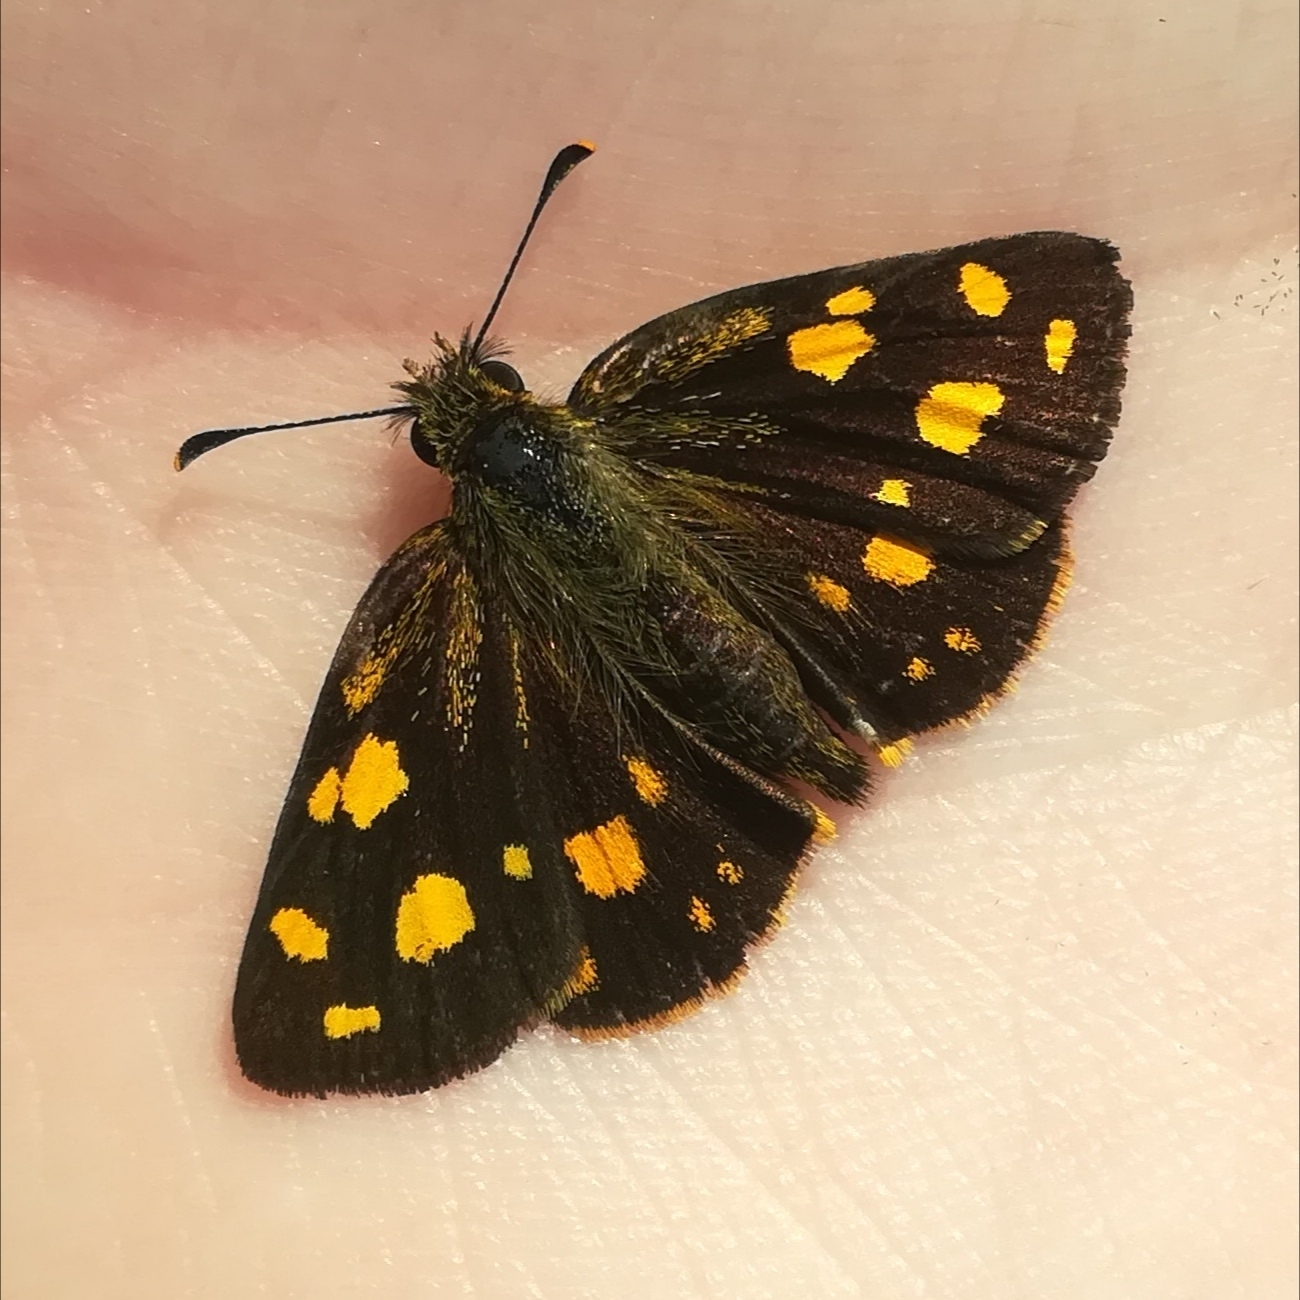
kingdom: Animalia
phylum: Arthropoda
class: Insecta
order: Lepidoptera
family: Hesperiidae
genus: Metisella
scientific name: Metisella metis
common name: Western gold-spotted sylph
